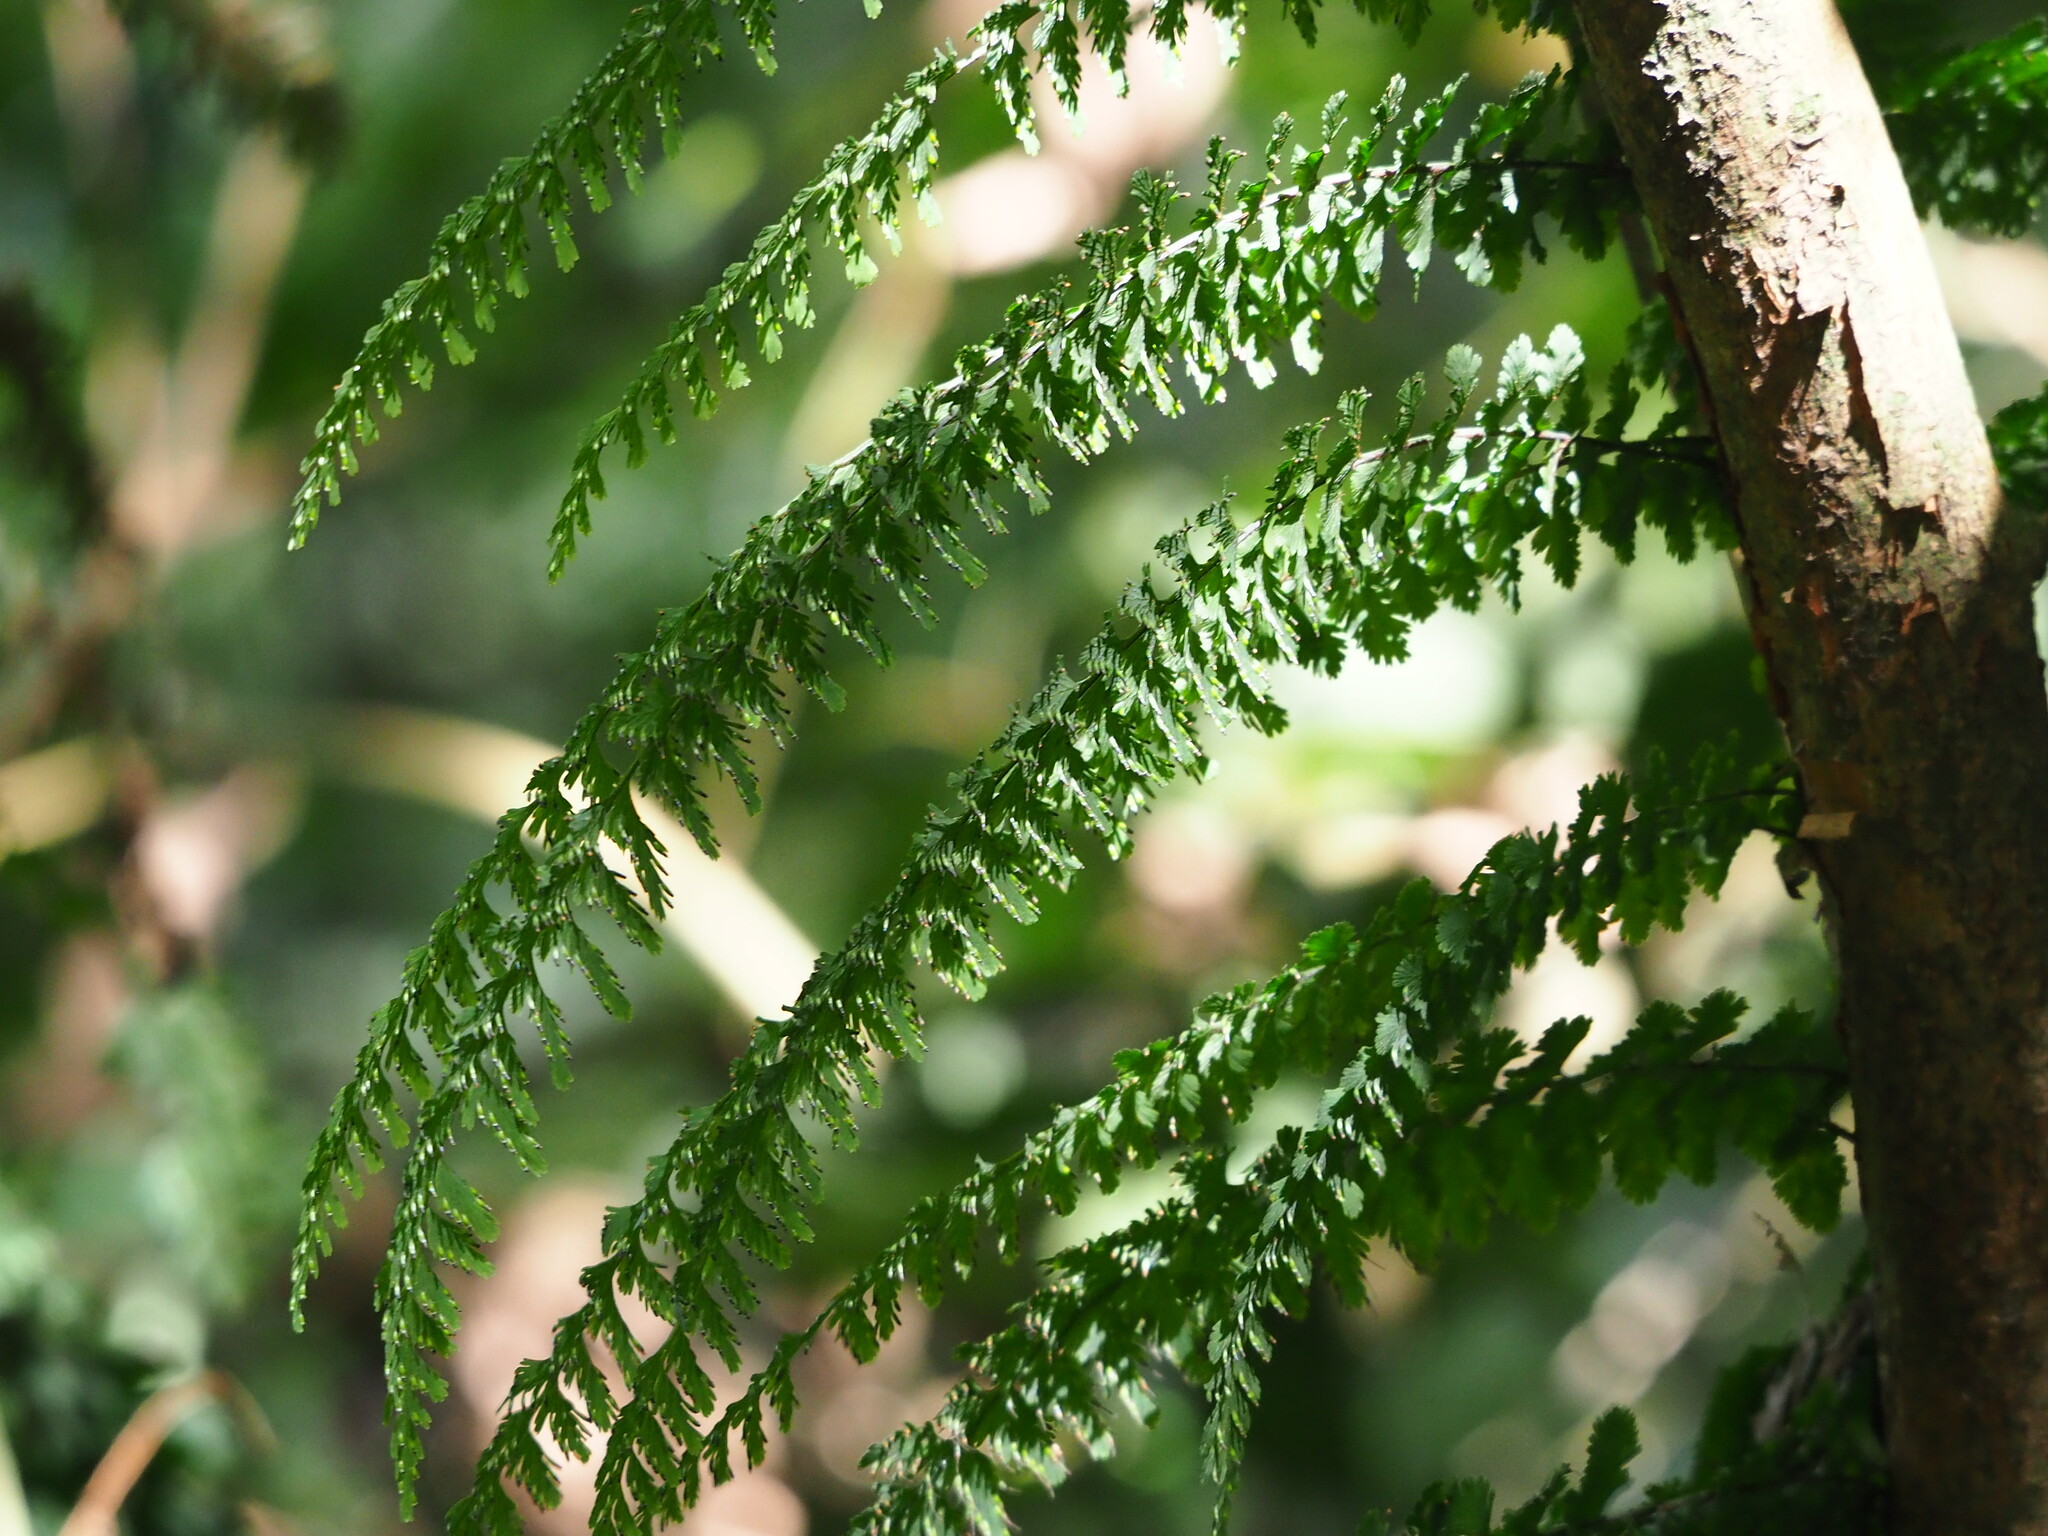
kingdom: Plantae
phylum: Tracheophyta
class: Polypodiopsida
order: Hymenophyllales
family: Hymenophyllaceae
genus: Vandenboschia
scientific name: Vandenboschia auriculata
